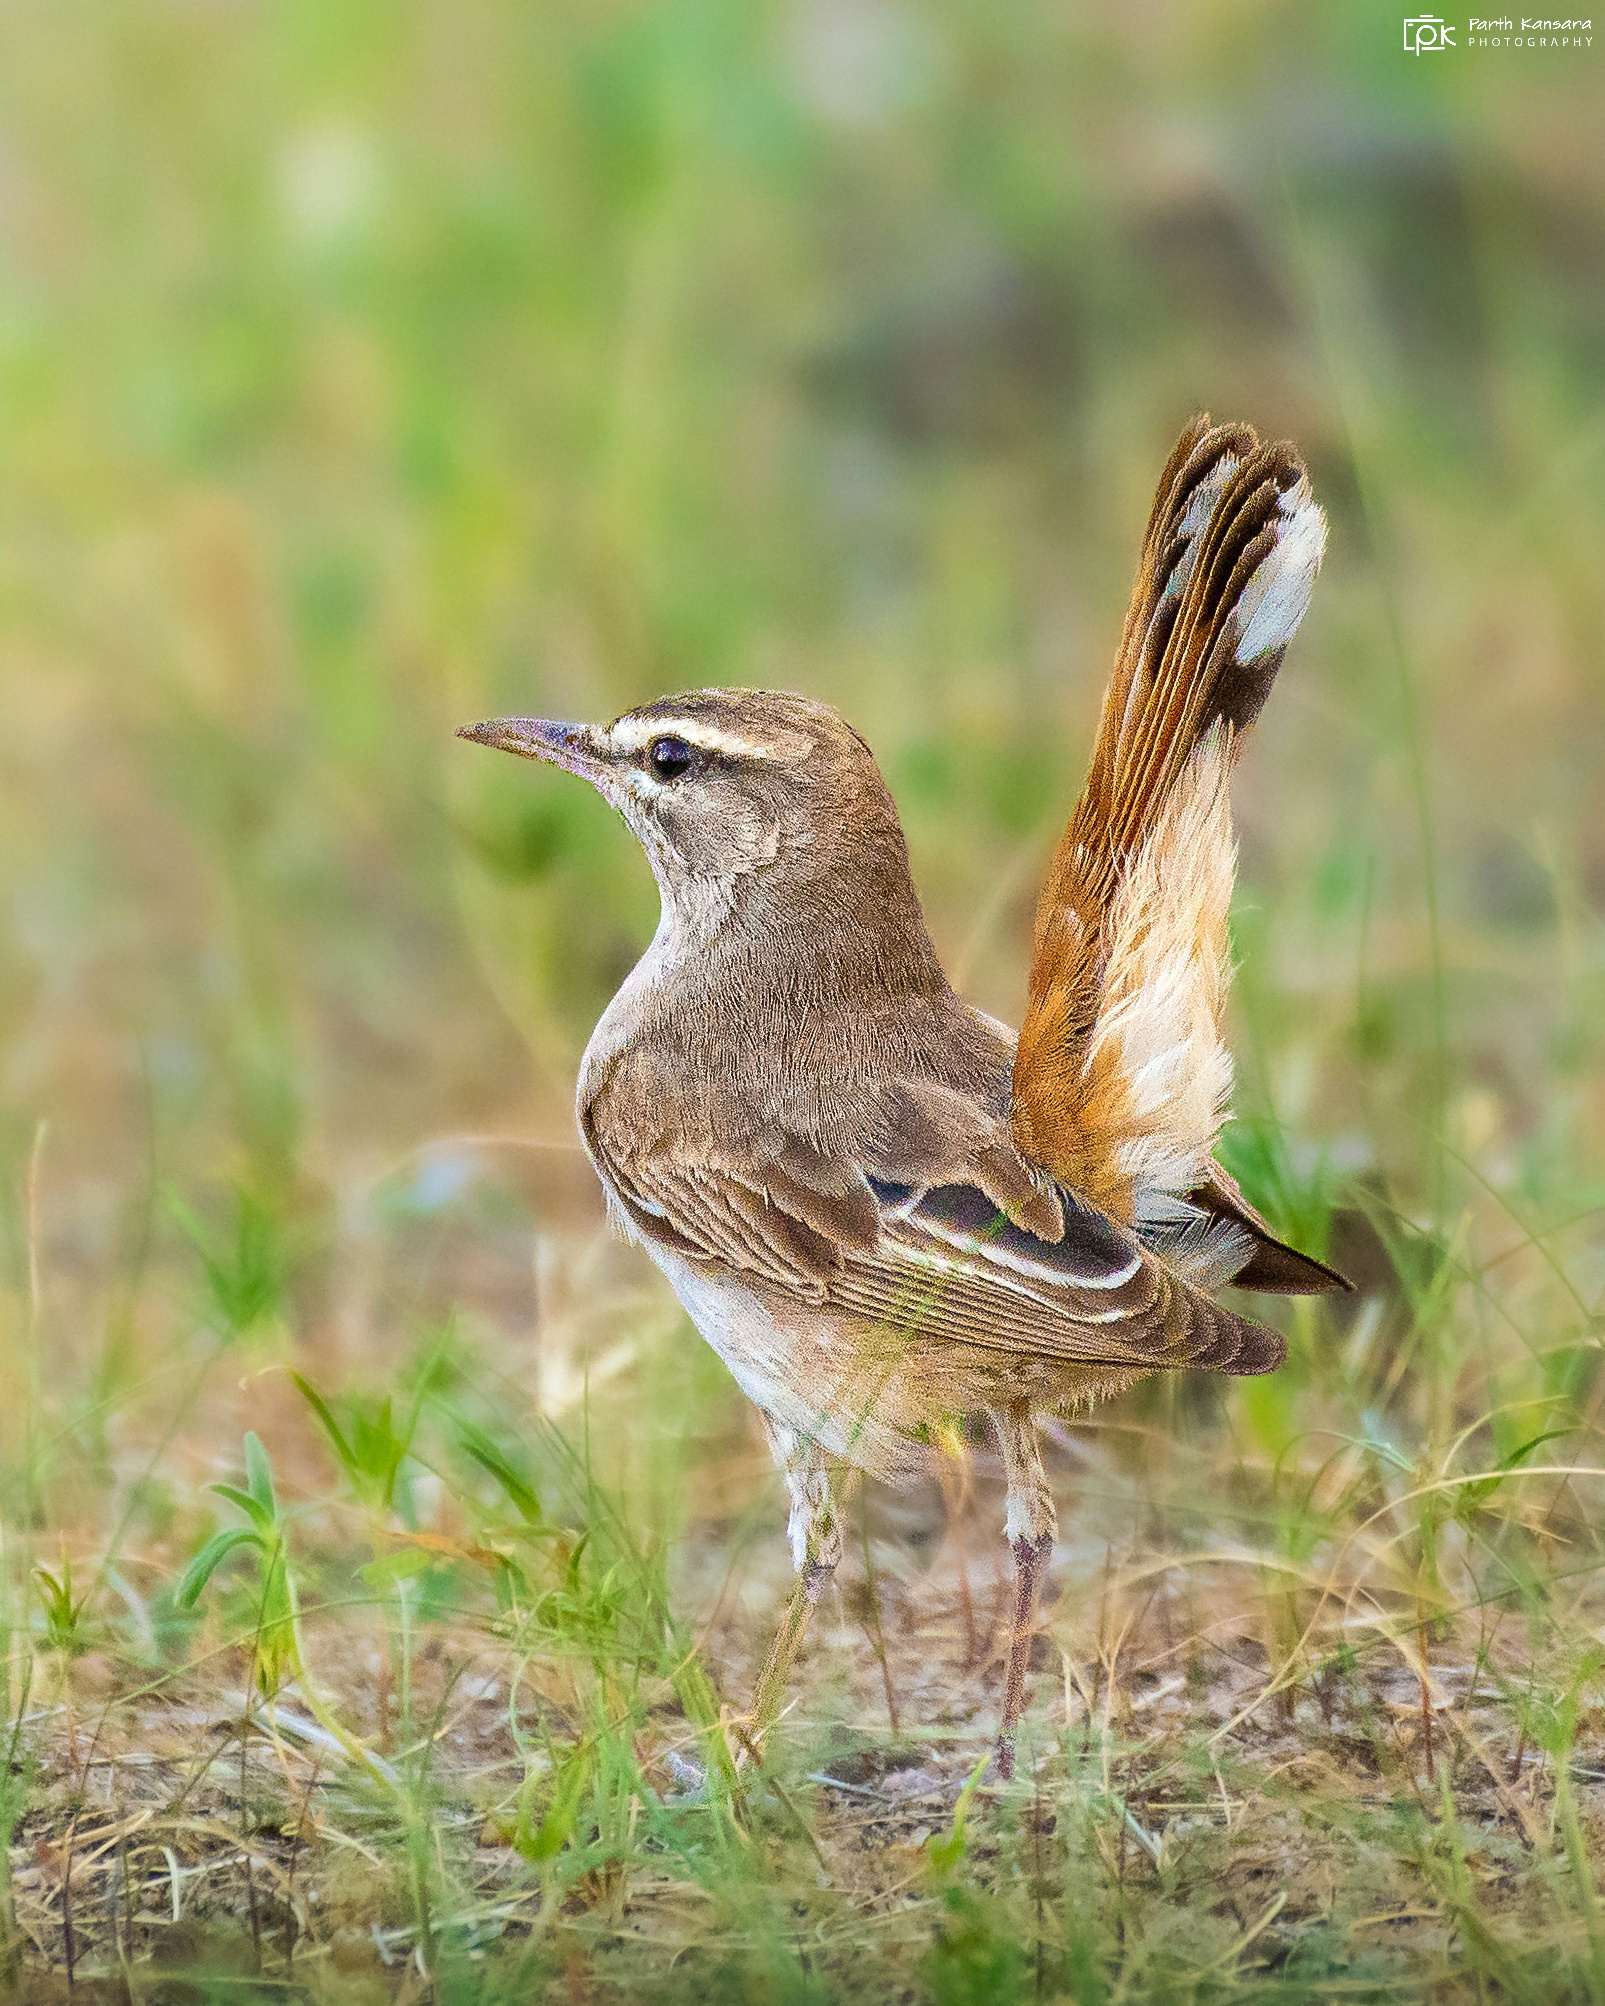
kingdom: Animalia
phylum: Chordata
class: Aves
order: Passeriformes
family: Muscicapidae
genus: Erythropygia
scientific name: Erythropygia galactotes
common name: Rufous-tailed scrub robin
